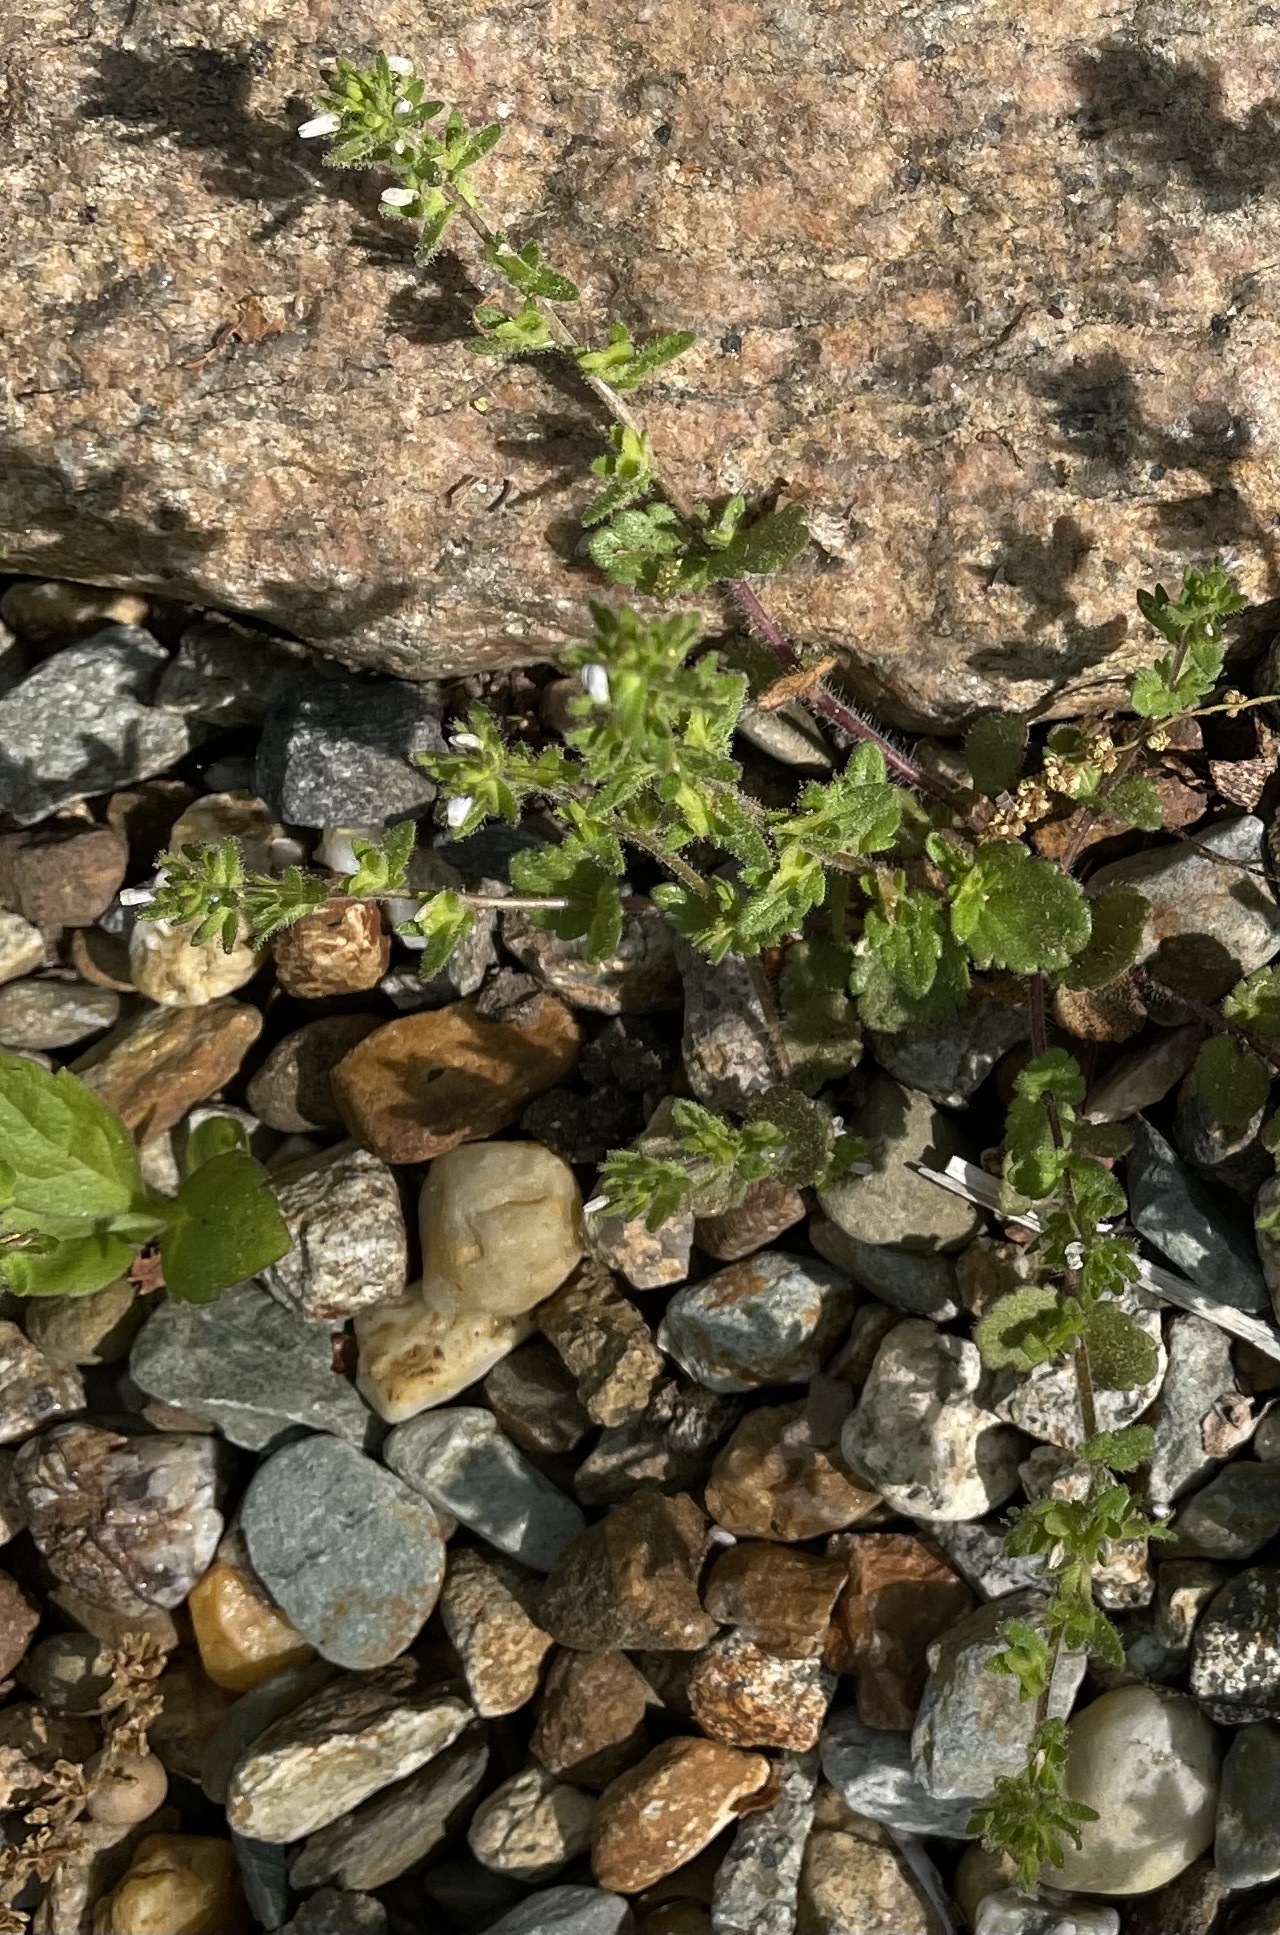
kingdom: Plantae
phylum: Tracheophyta
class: Magnoliopsida
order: Lamiales
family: Plantaginaceae
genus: Veronica
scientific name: Veronica arvensis
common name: Corn speedwell
